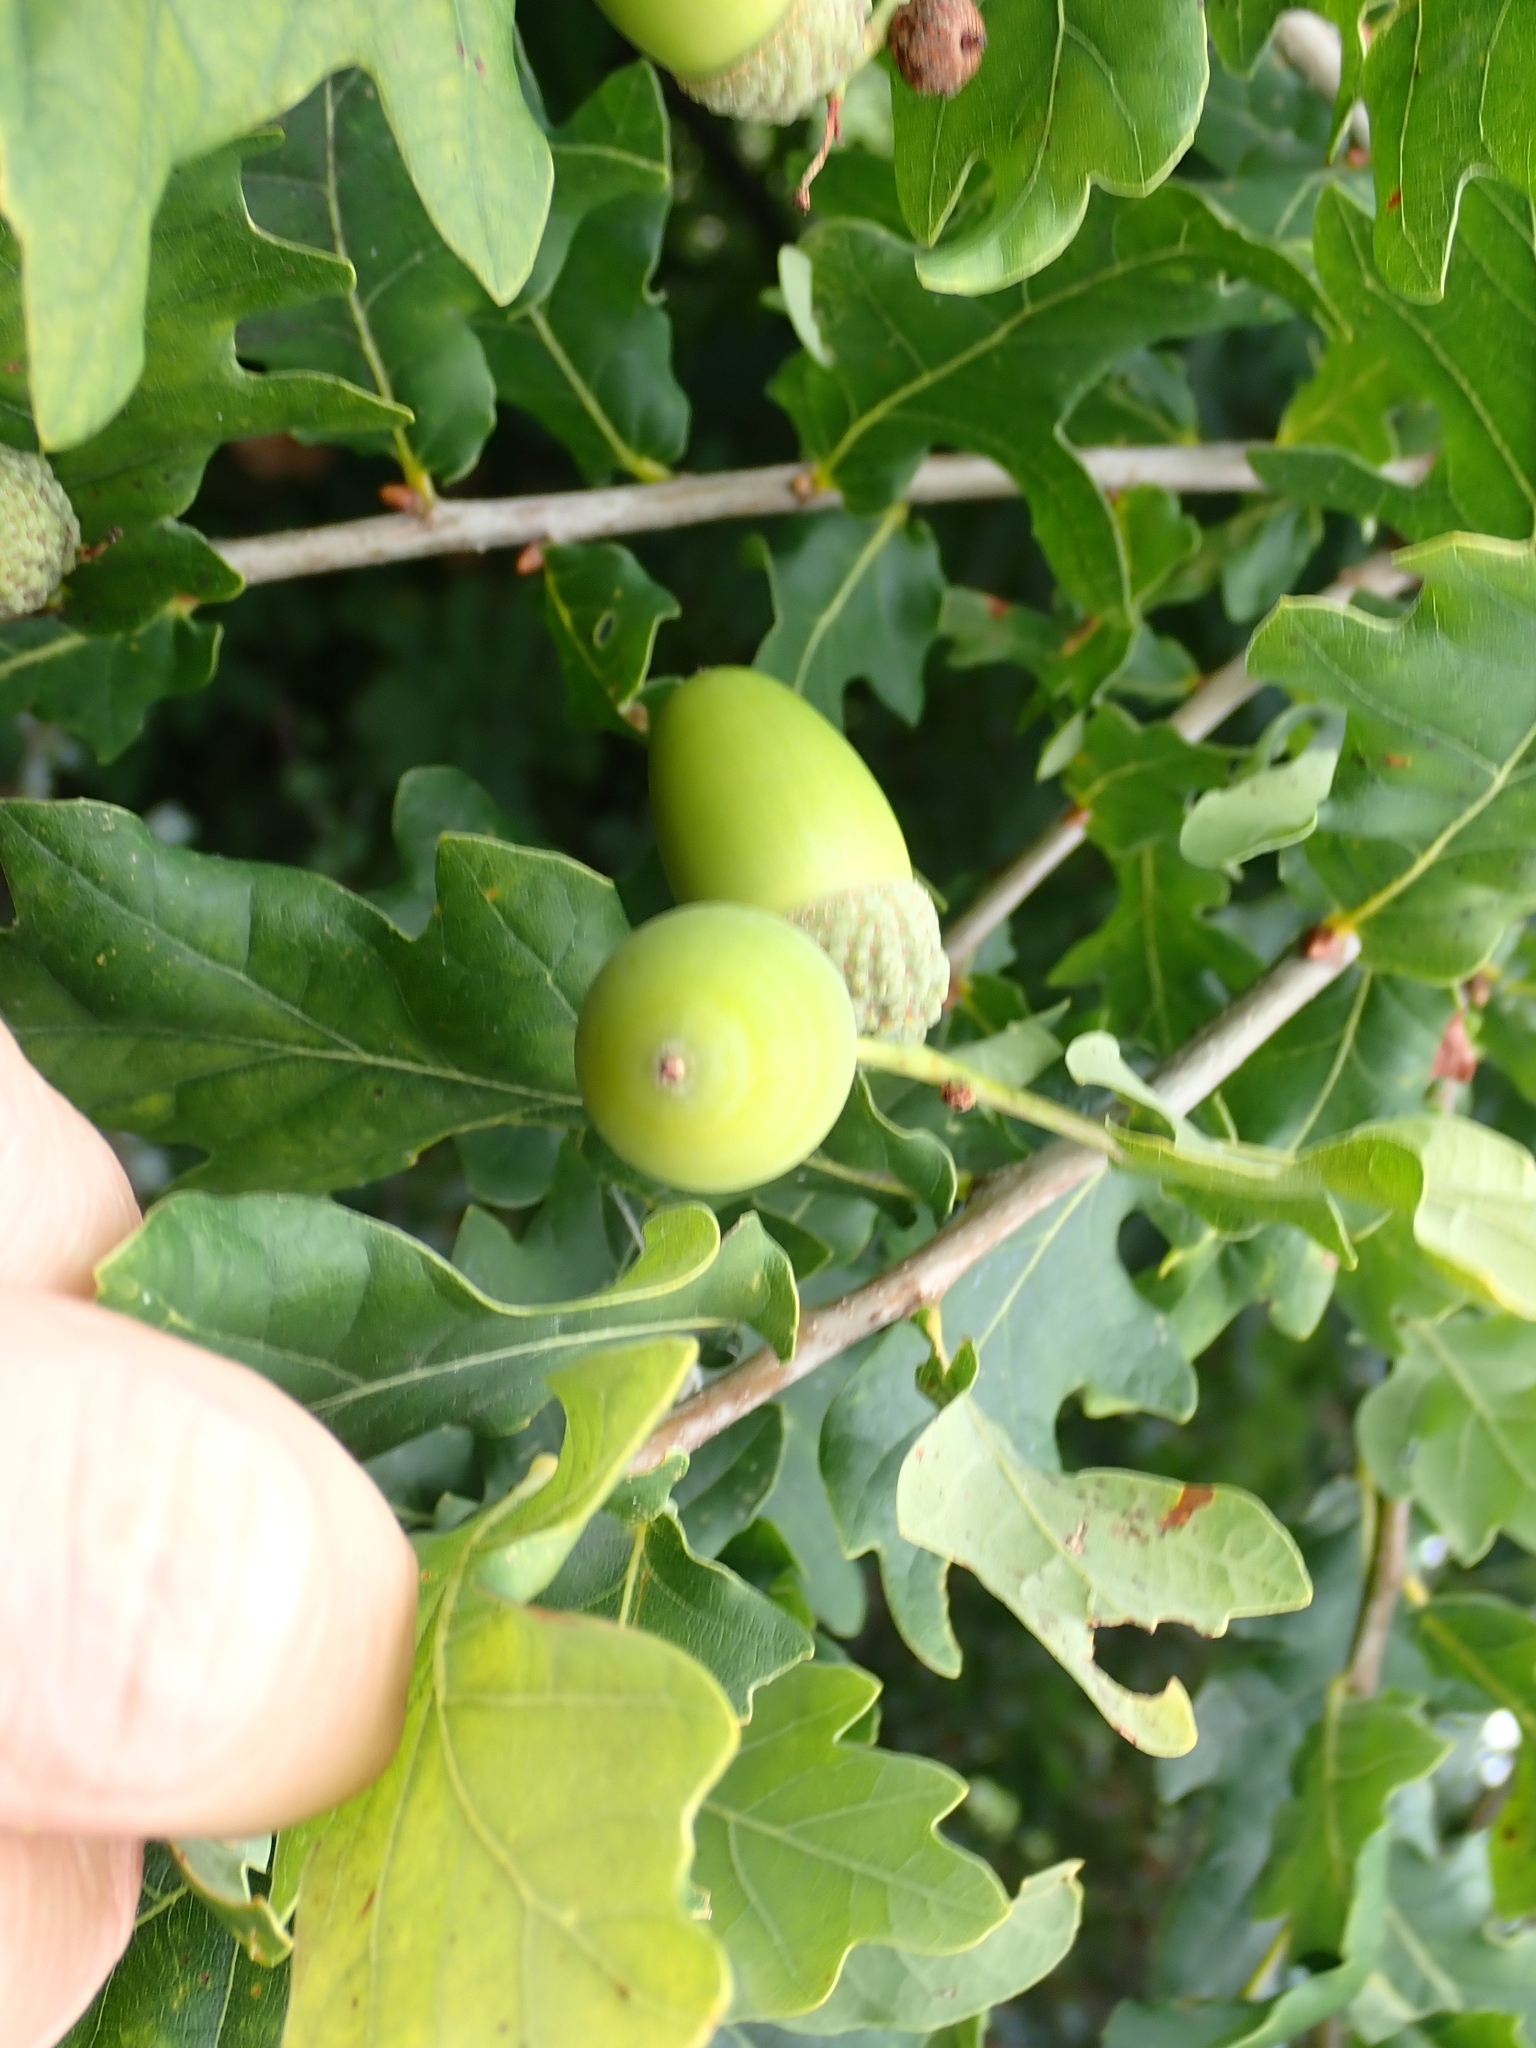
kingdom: Plantae
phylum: Tracheophyta
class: Magnoliopsida
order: Fagales
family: Fagaceae
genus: Quercus
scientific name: Quercus robur
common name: Pedunculate oak
